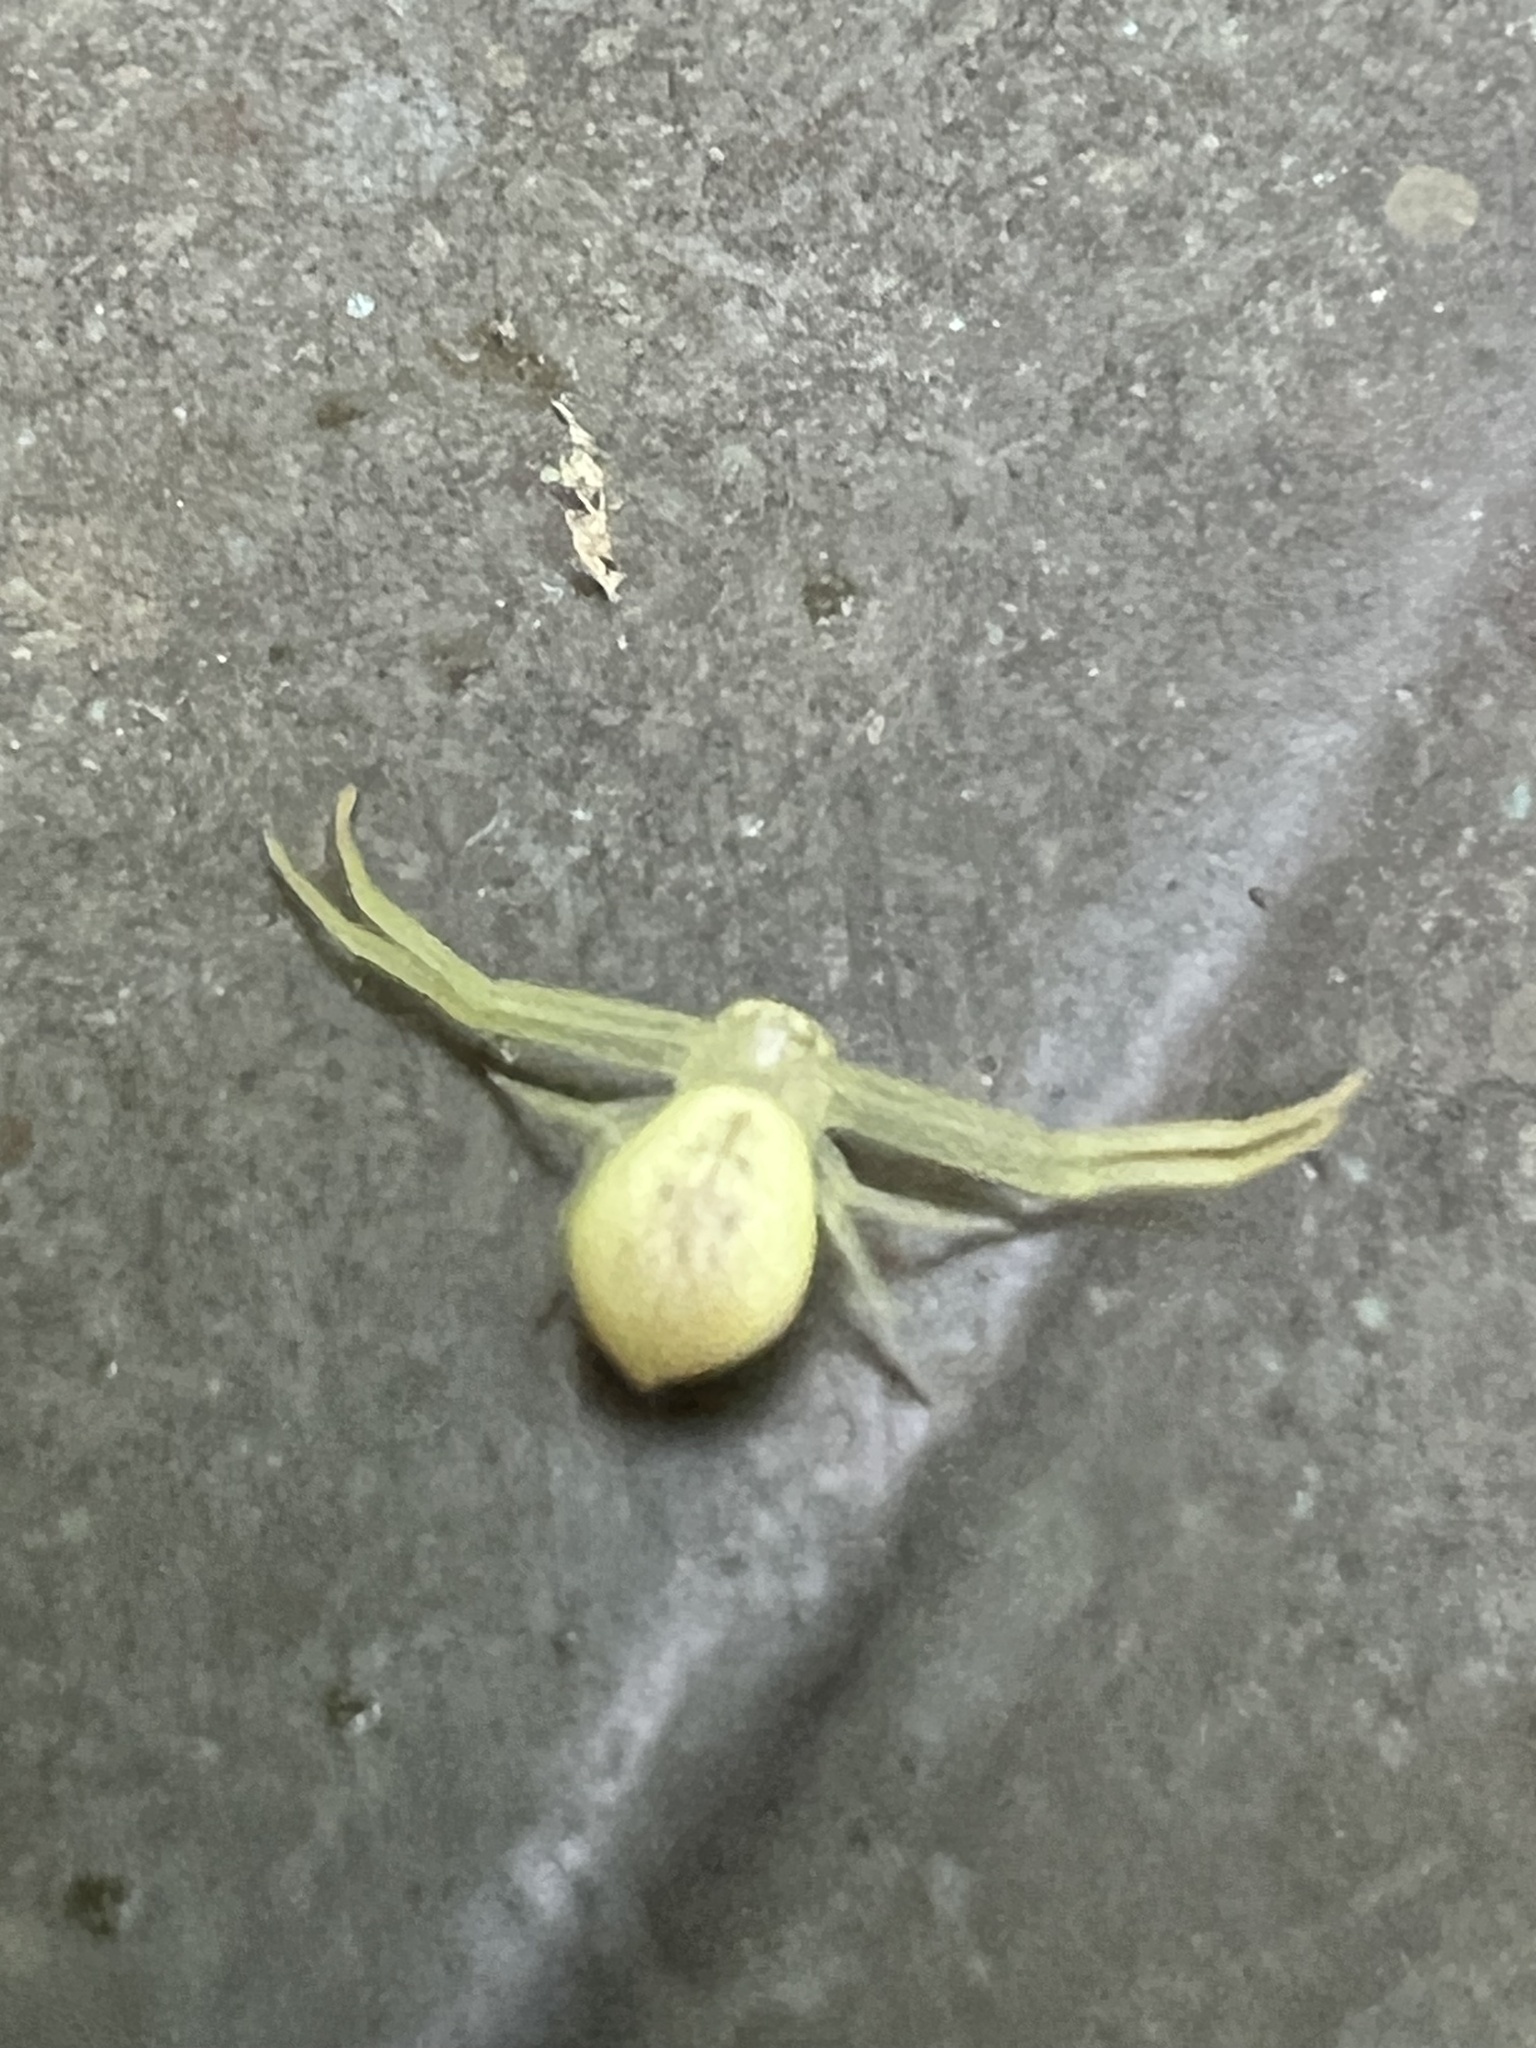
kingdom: Animalia
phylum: Arthropoda
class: Arachnida
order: Araneae
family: Thomisidae
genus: Misumessus
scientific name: Misumessus oblongus
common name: American green crab spider
